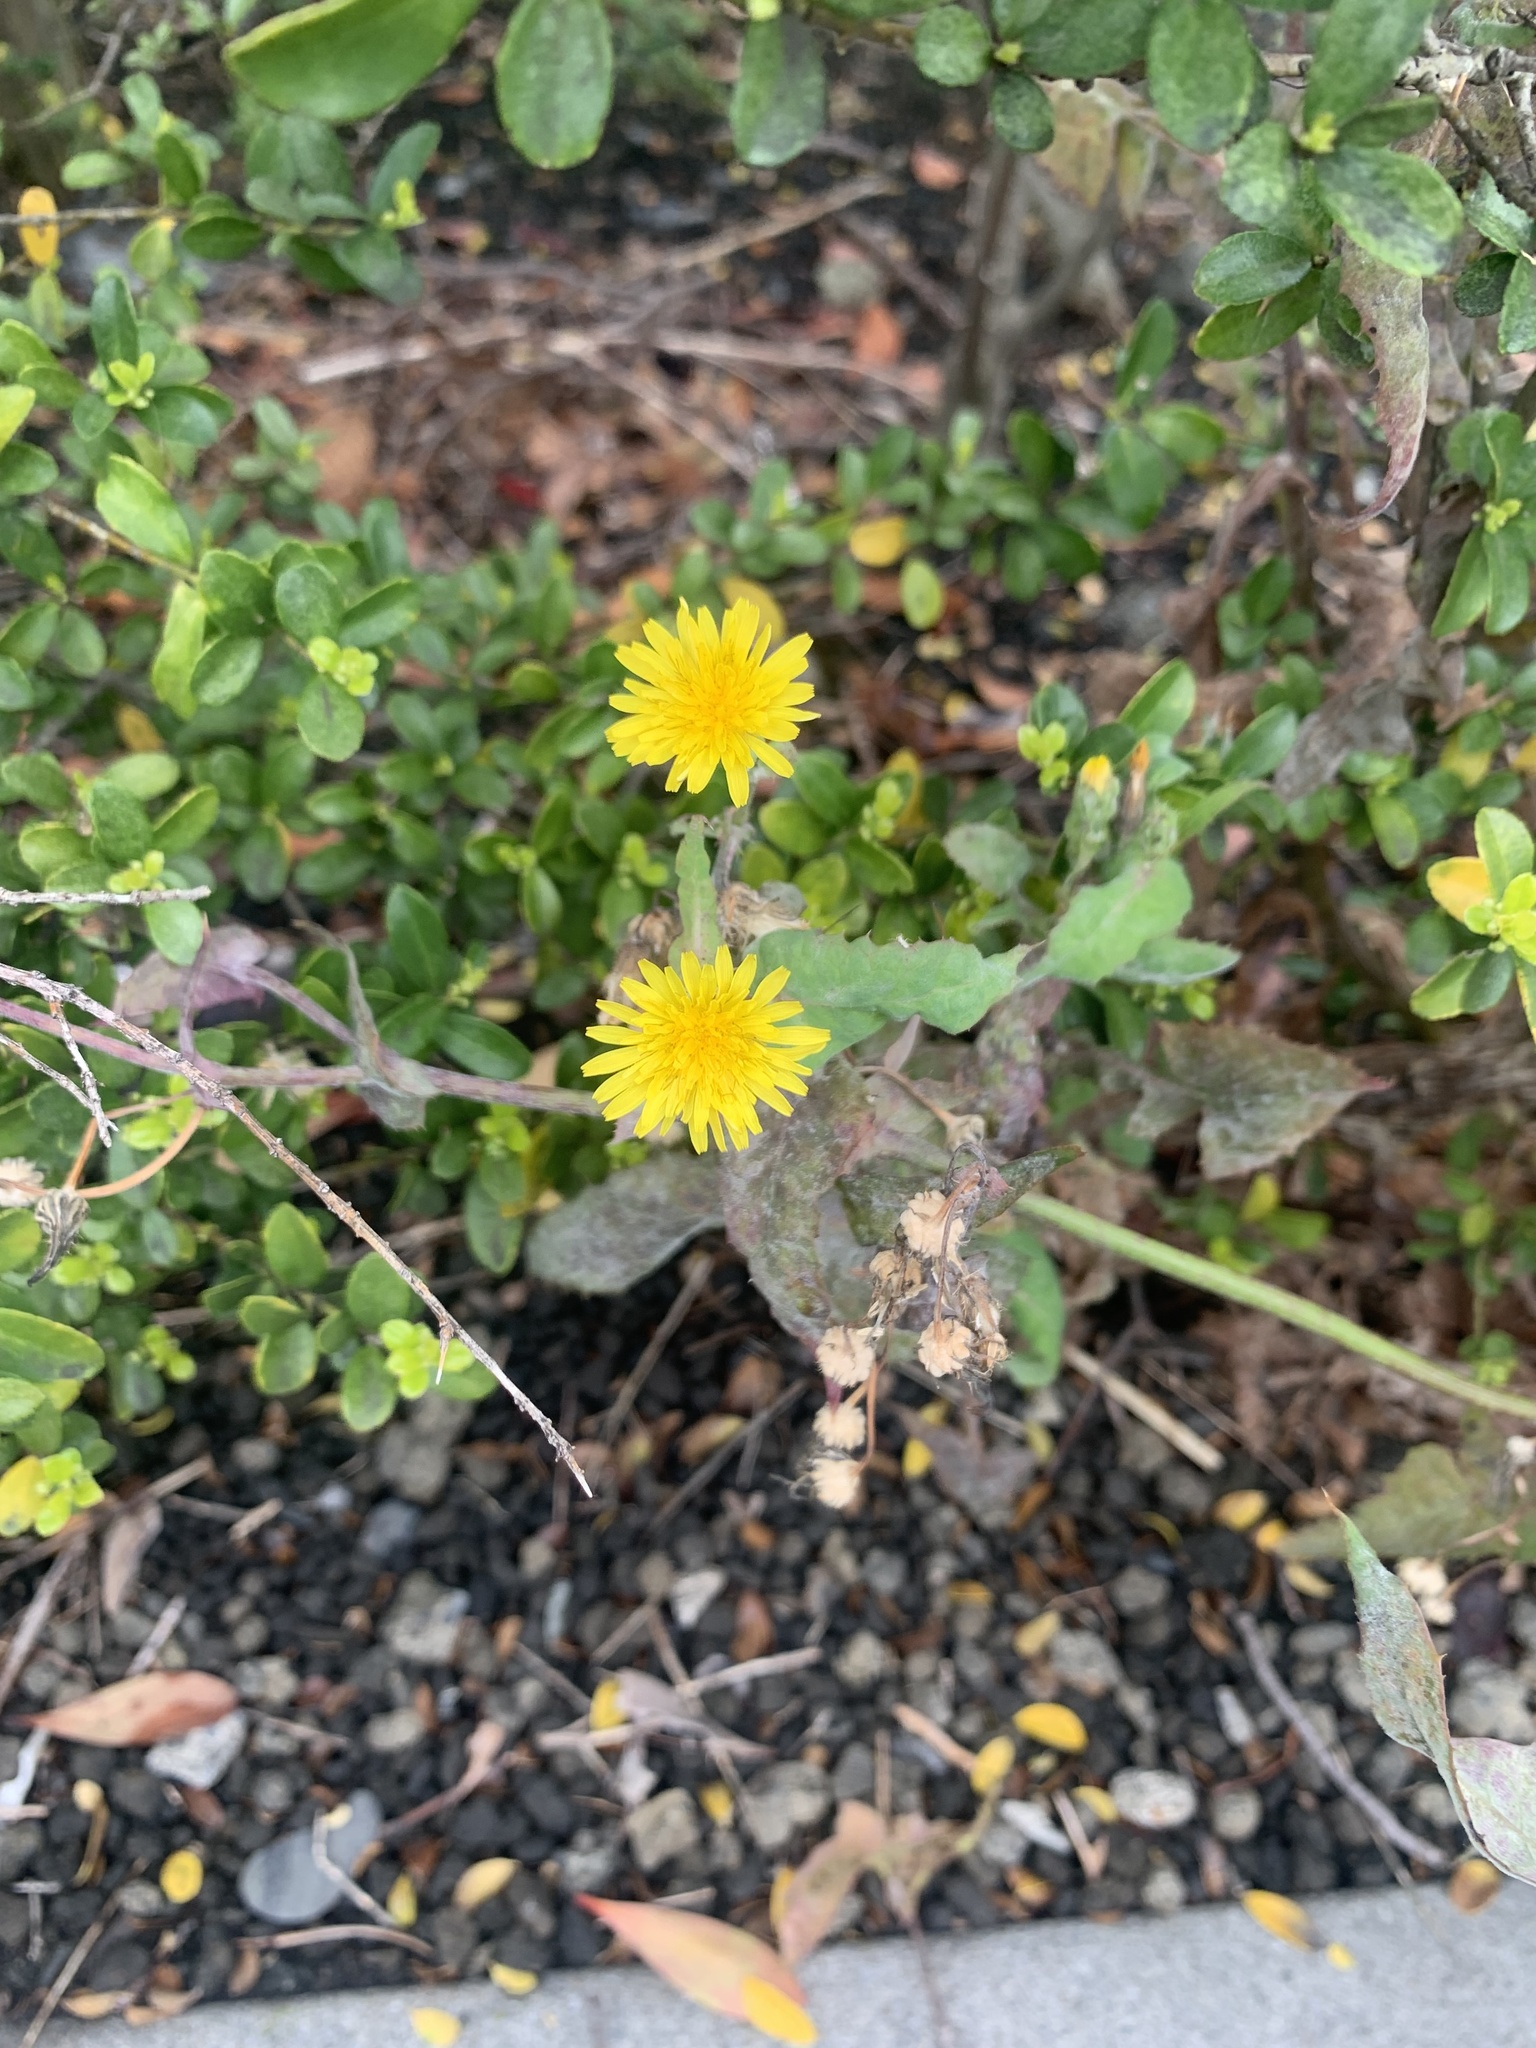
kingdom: Plantae
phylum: Tracheophyta
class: Magnoliopsida
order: Asterales
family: Asteraceae
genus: Sonchus
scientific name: Sonchus oleraceus
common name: Common sowthistle
